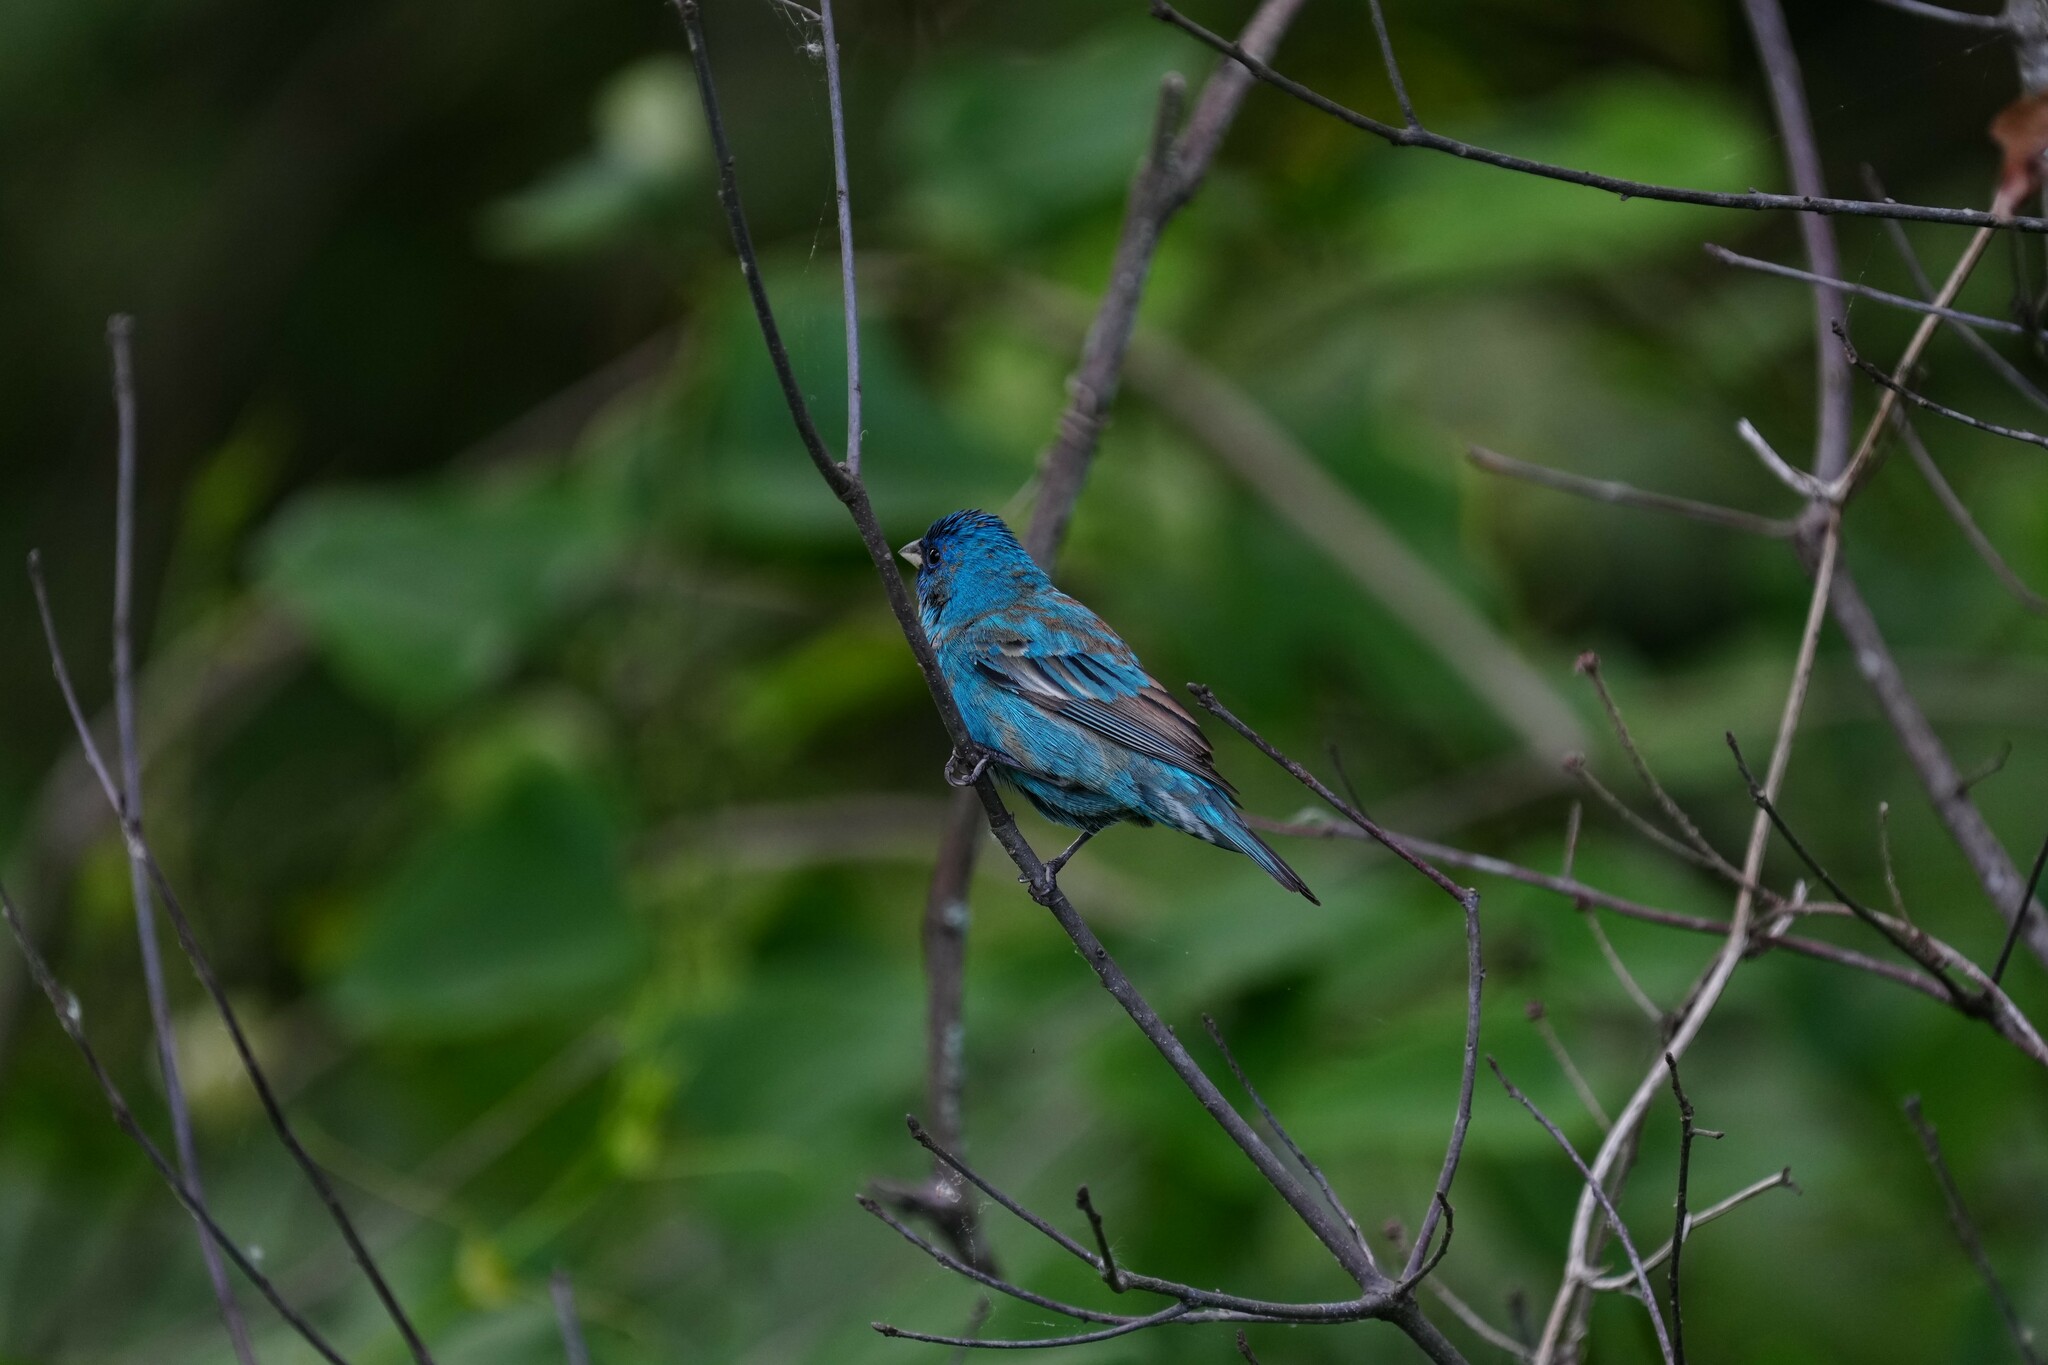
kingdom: Animalia
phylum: Chordata
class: Aves
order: Passeriformes
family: Cardinalidae
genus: Passerina
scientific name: Passerina cyanea
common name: Indigo bunting
